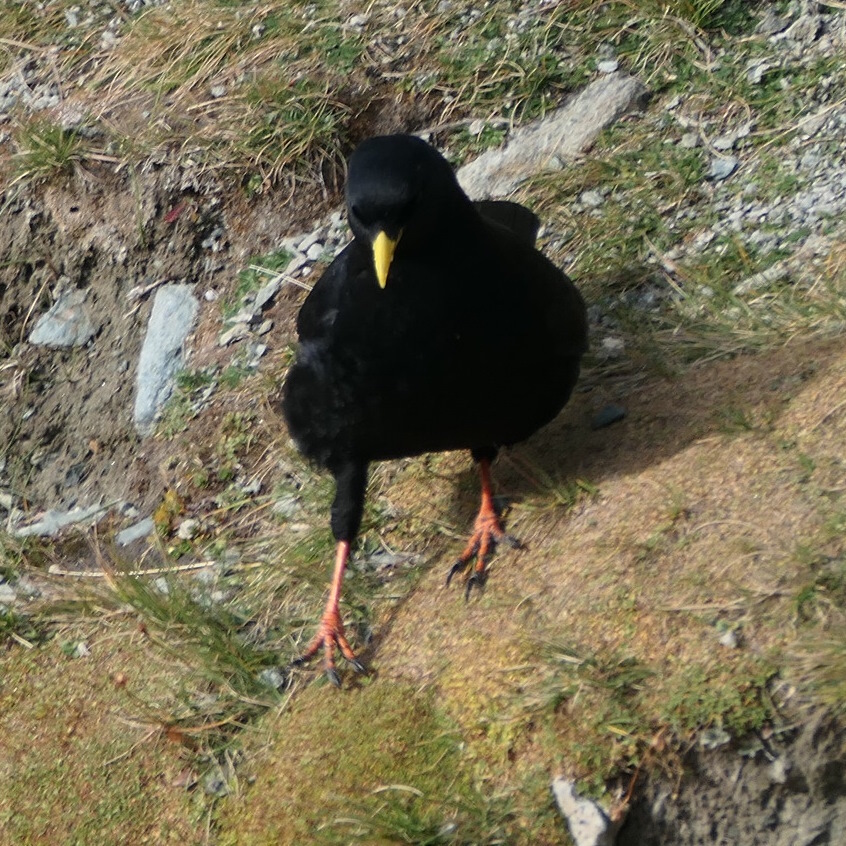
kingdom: Animalia
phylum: Chordata
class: Aves
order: Passeriformes
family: Corvidae
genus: Pyrrhocorax
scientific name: Pyrrhocorax graculus
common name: Alpine chough
